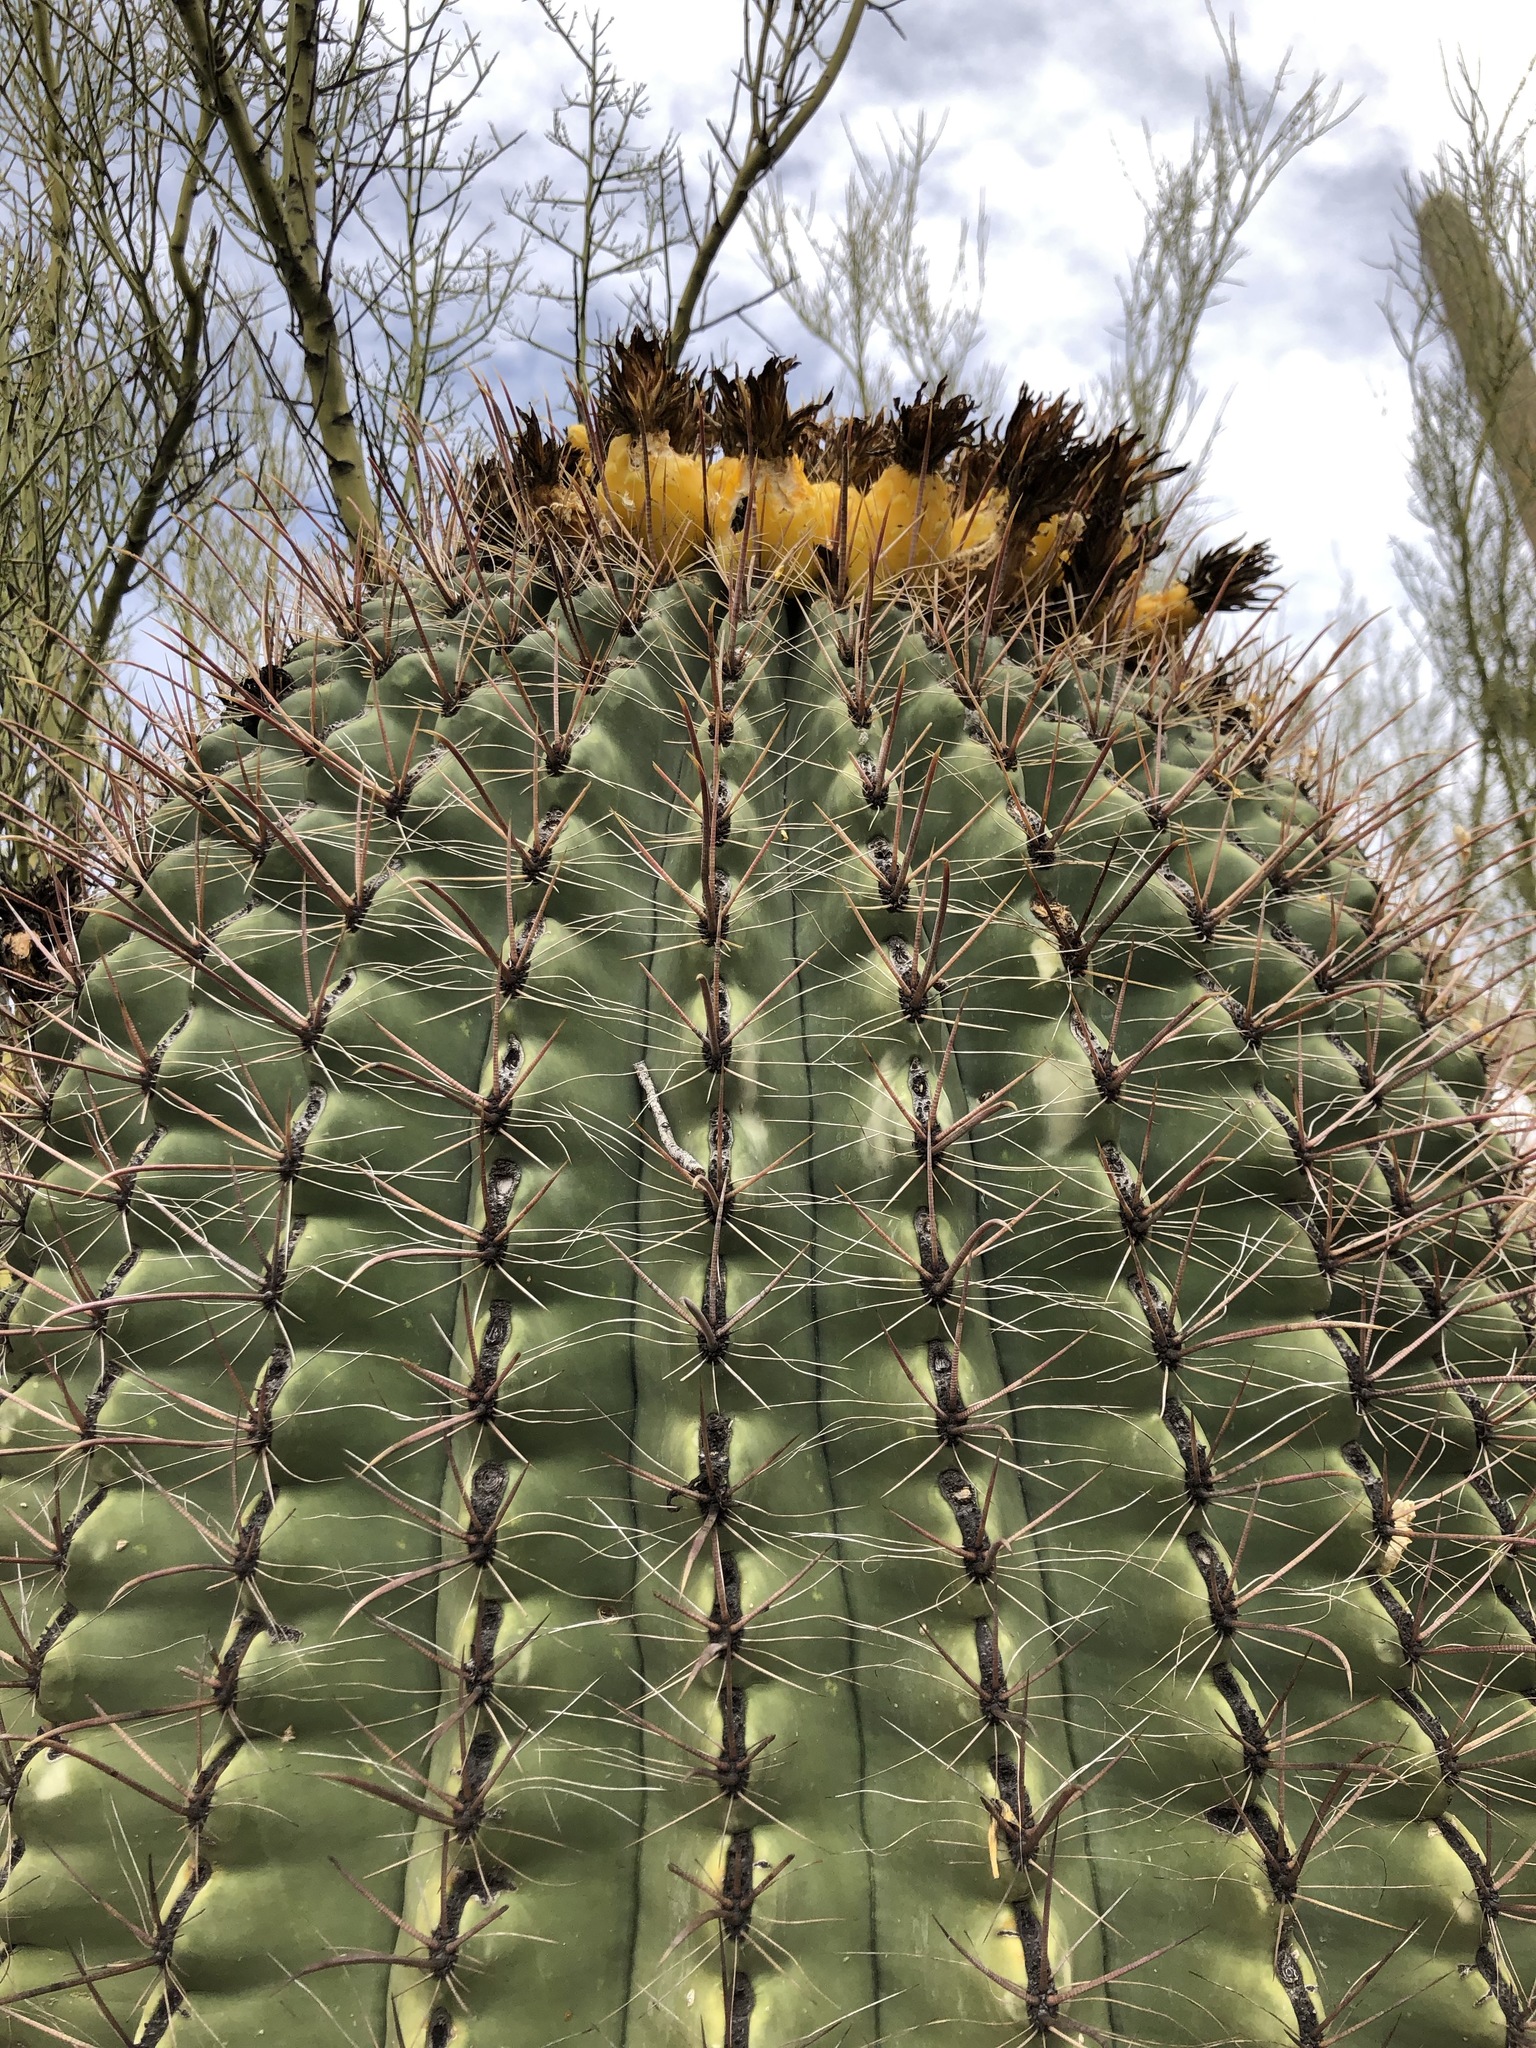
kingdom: Plantae
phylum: Tracheophyta
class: Magnoliopsida
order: Caryophyllales
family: Cactaceae
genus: Ferocactus
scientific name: Ferocactus wislizeni
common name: Candy barrel cactus
